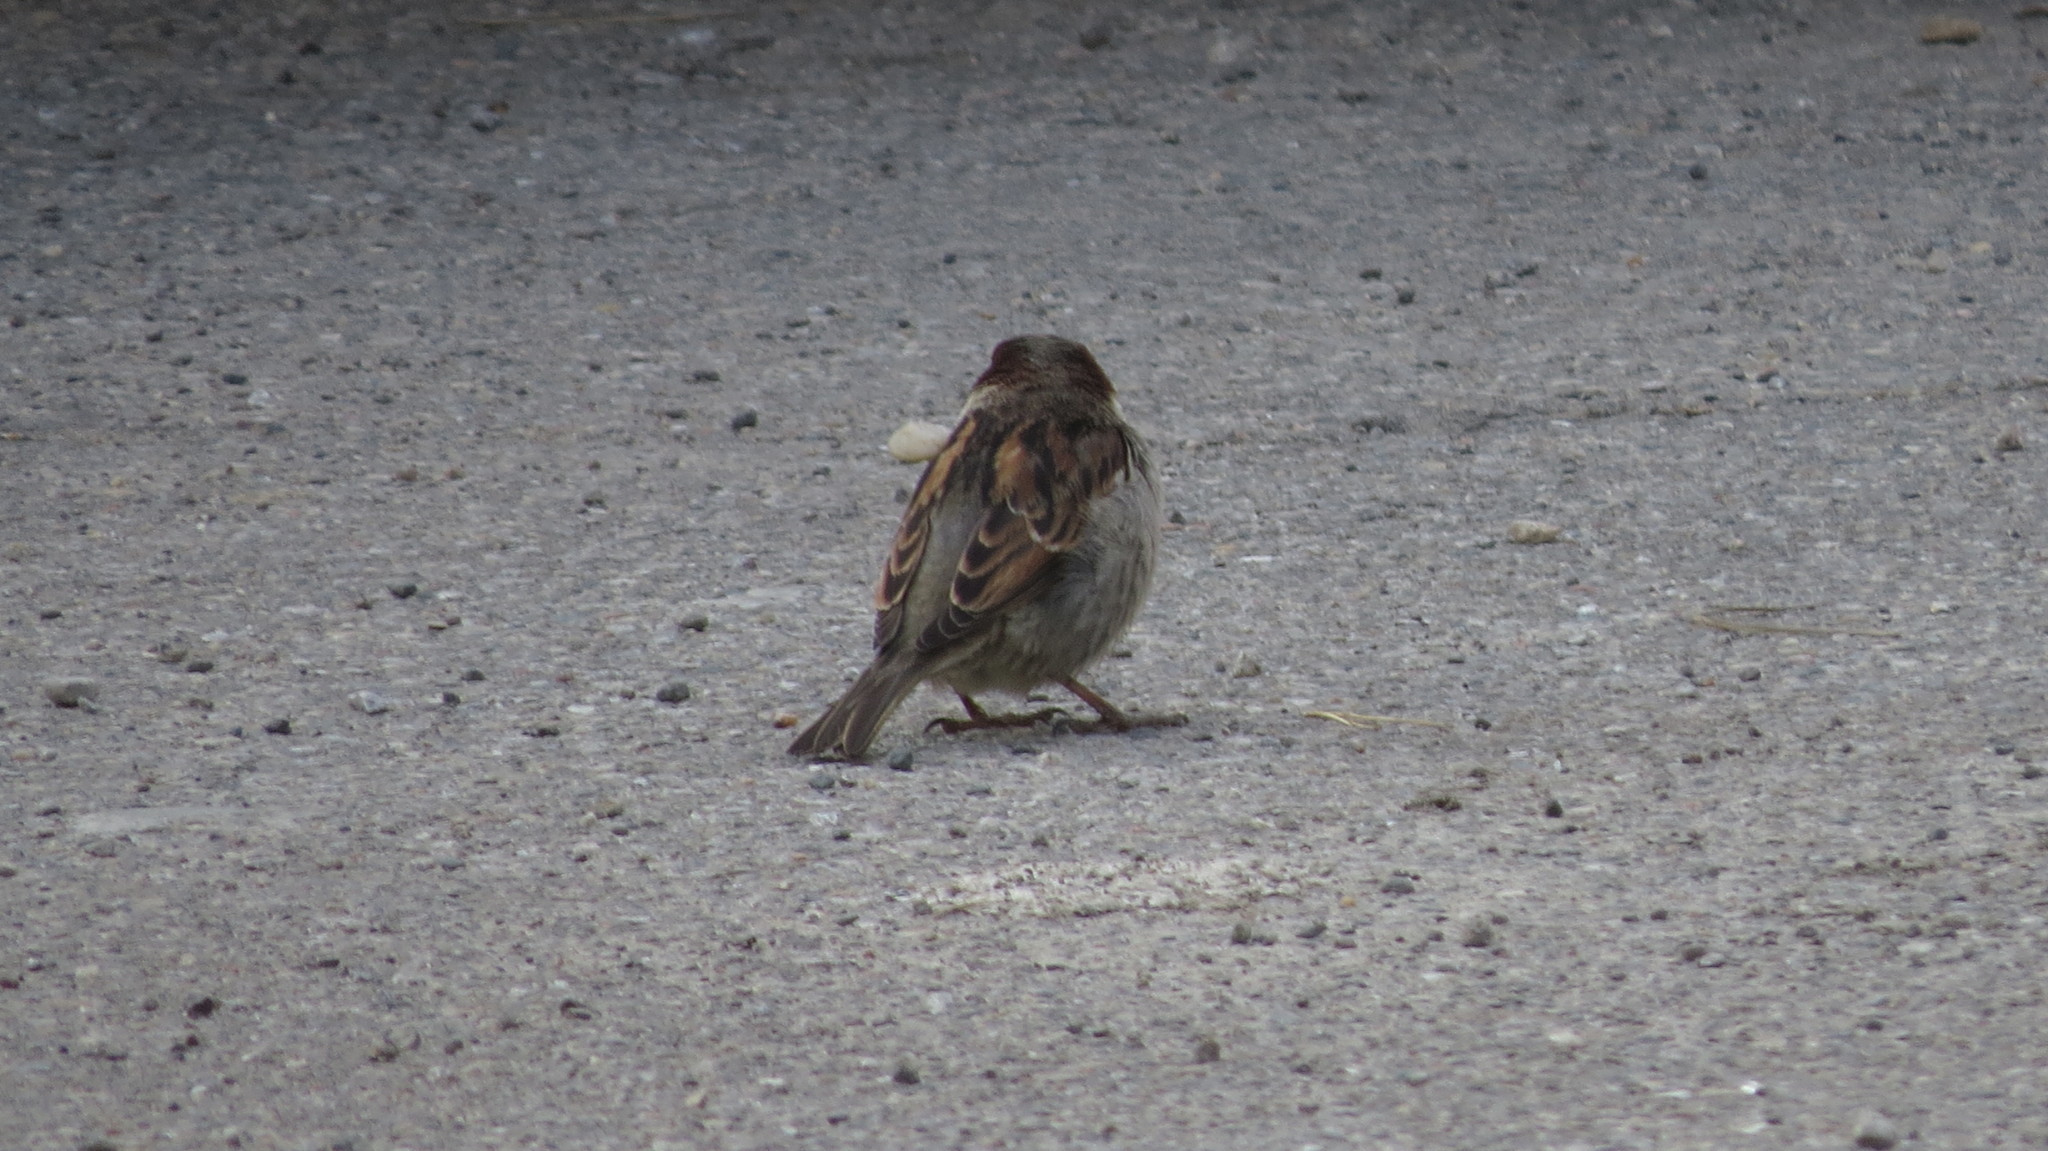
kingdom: Animalia
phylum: Chordata
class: Aves
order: Passeriformes
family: Passeridae
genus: Passer
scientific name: Passer domesticus
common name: House sparrow
